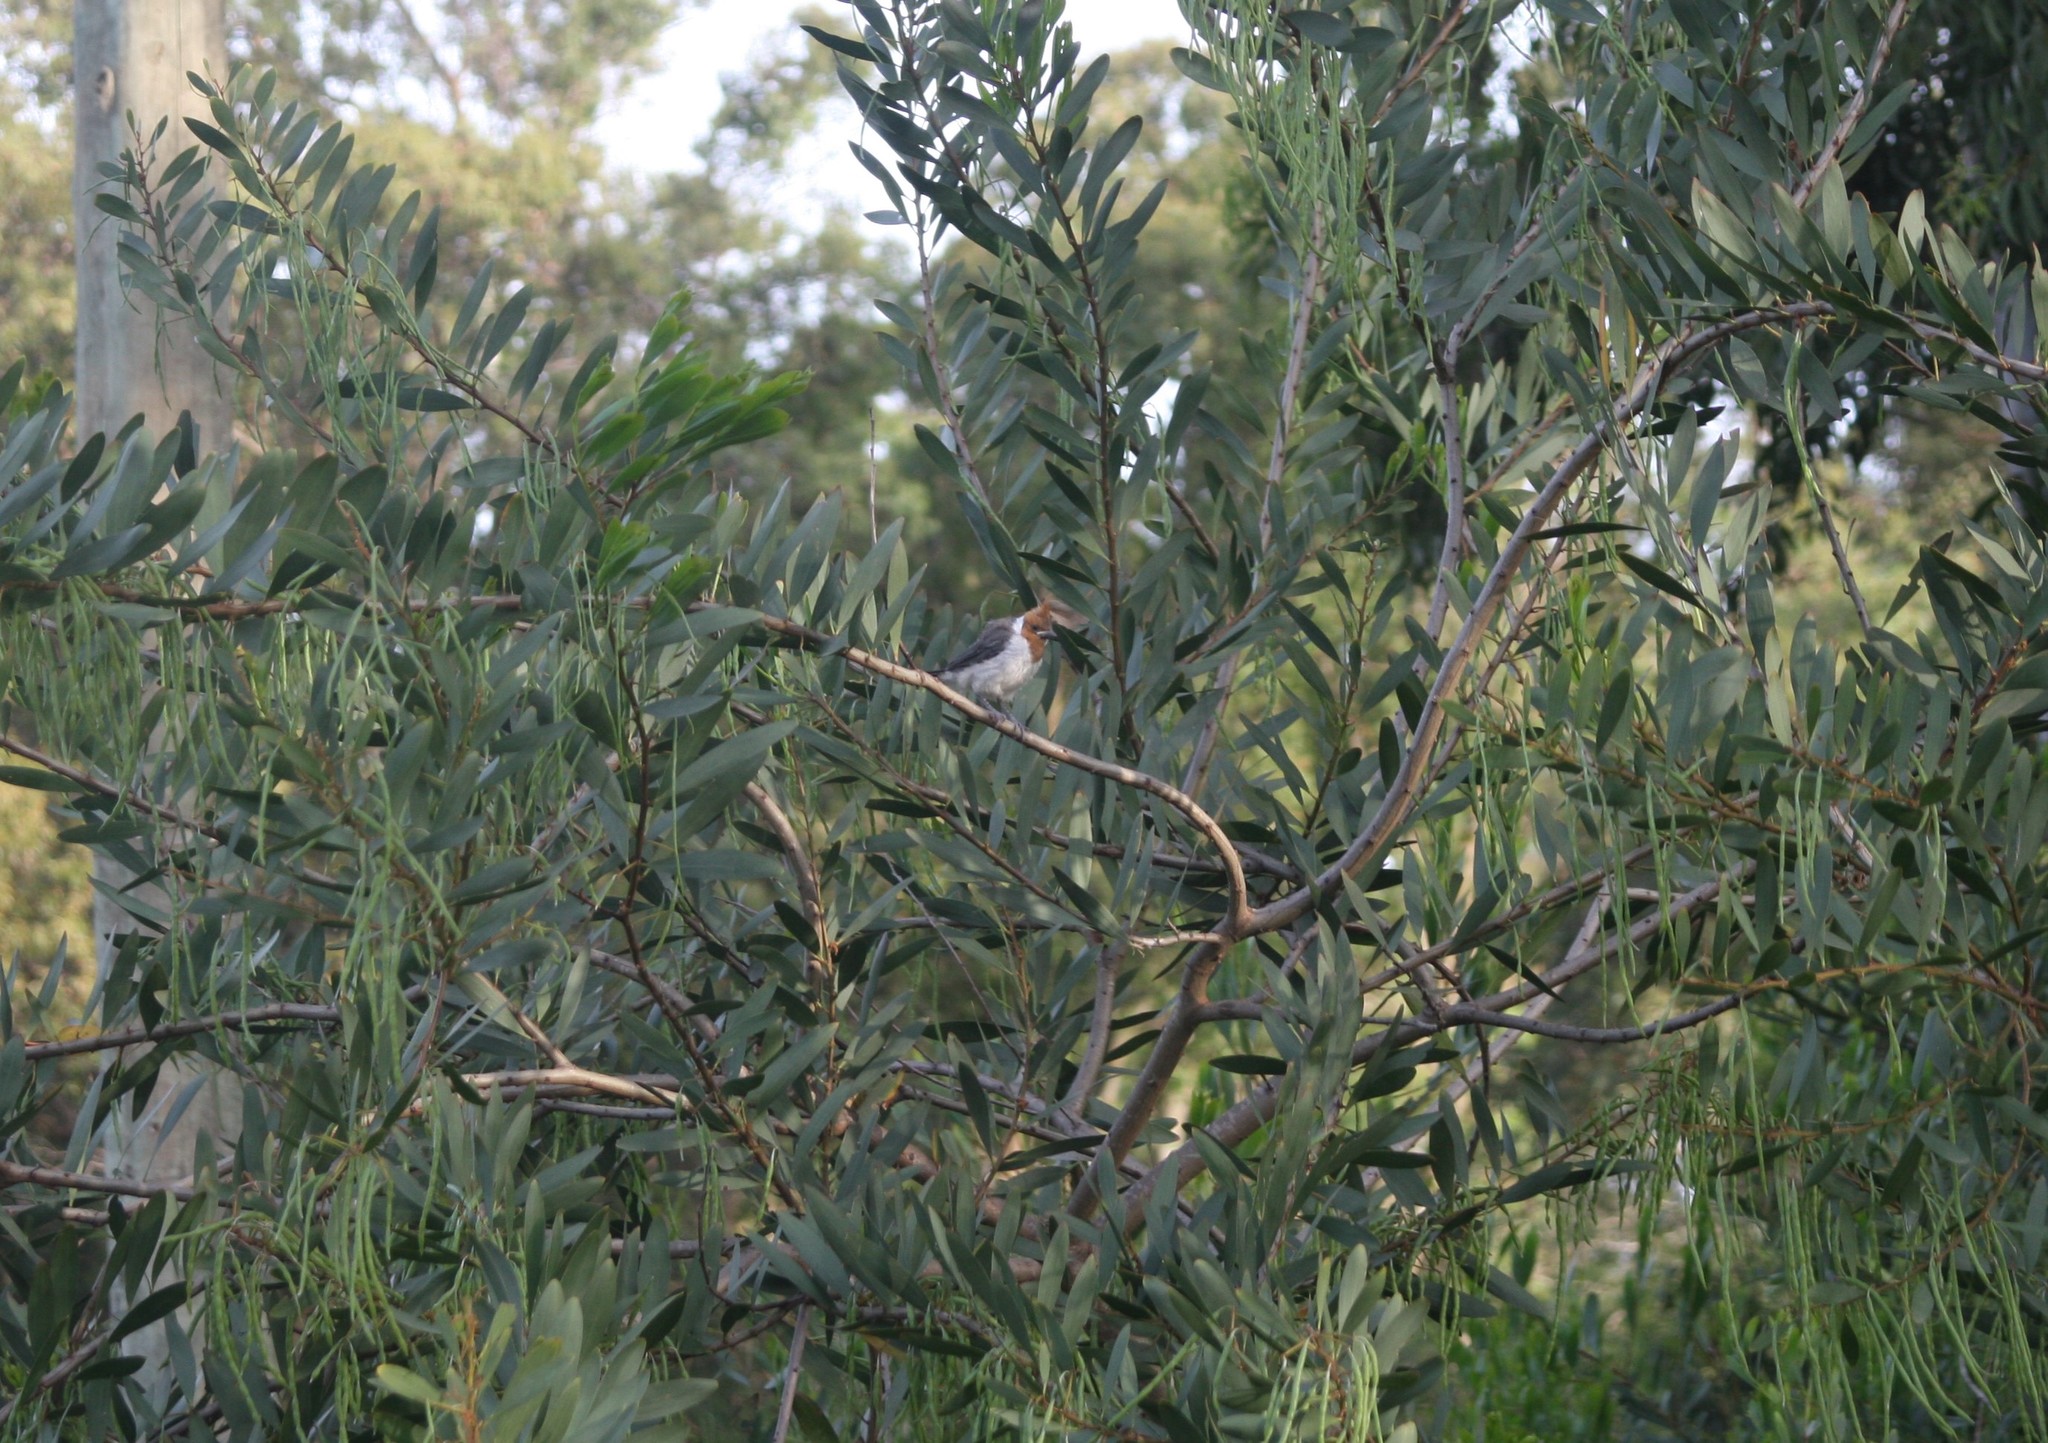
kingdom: Animalia
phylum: Chordata
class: Aves
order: Passeriformes
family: Thraupidae
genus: Paroaria
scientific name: Paroaria coronata
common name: Red-crested cardinal
